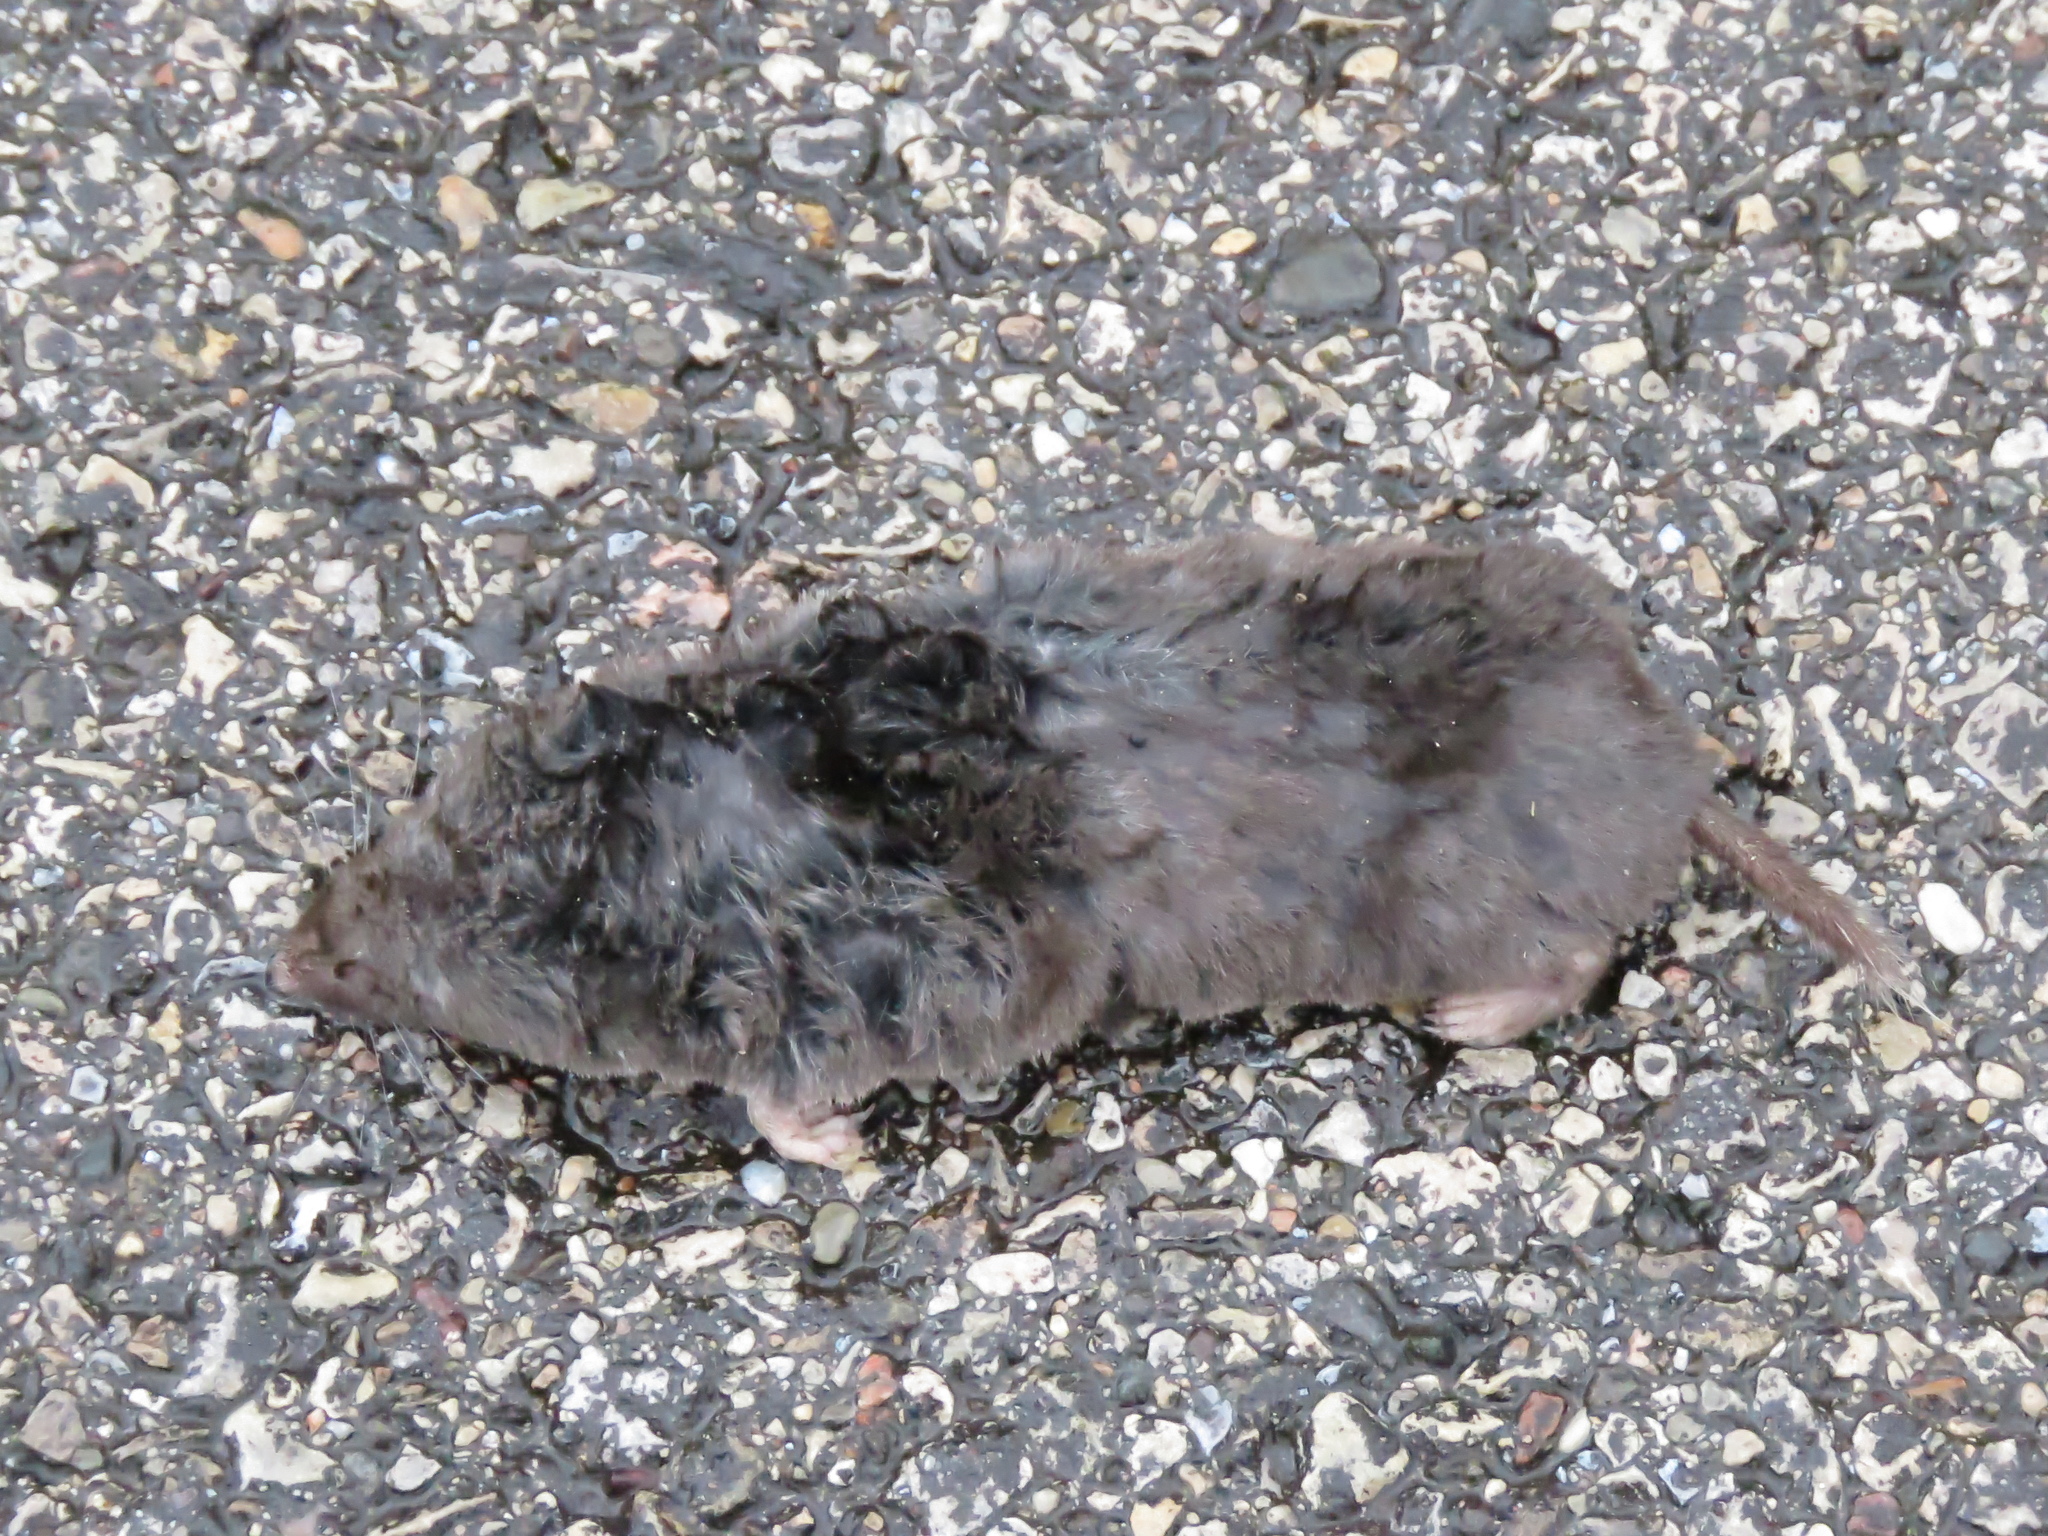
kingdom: Animalia
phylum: Chordata
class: Mammalia
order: Soricomorpha
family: Soricidae
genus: Blarina
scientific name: Blarina brevicauda
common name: Northern short-tailed shrew
